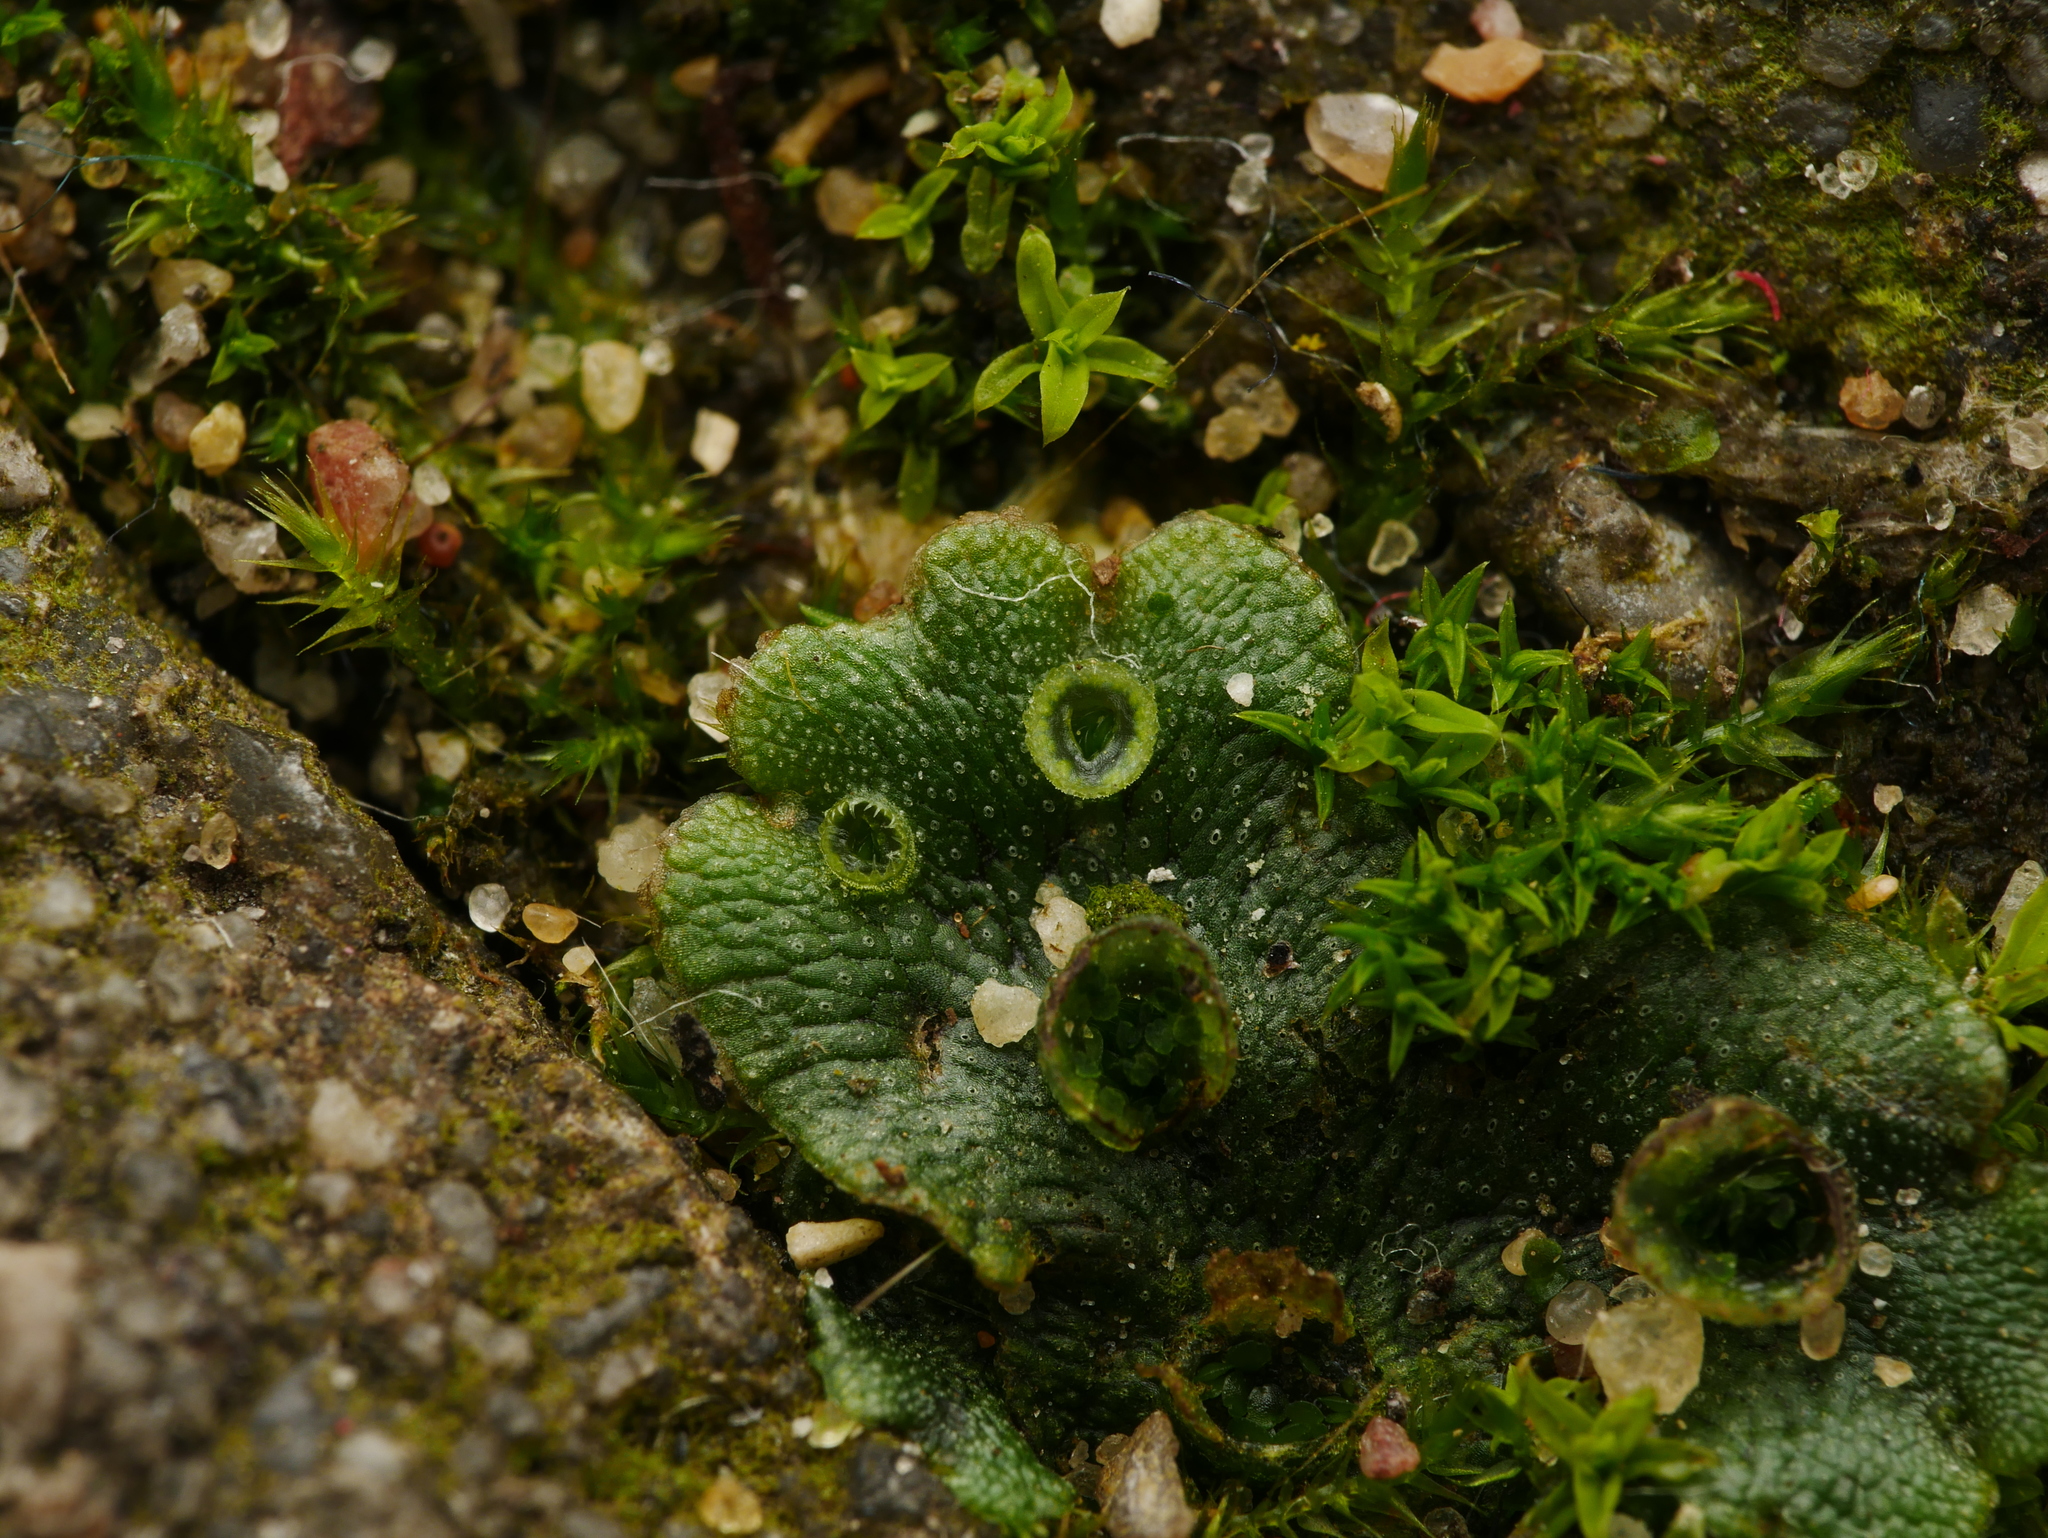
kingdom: Plantae
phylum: Marchantiophyta
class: Marchantiopsida
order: Marchantiales
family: Marchantiaceae
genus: Marchantia
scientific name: Marchantia polymorpha
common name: Common liverwort
